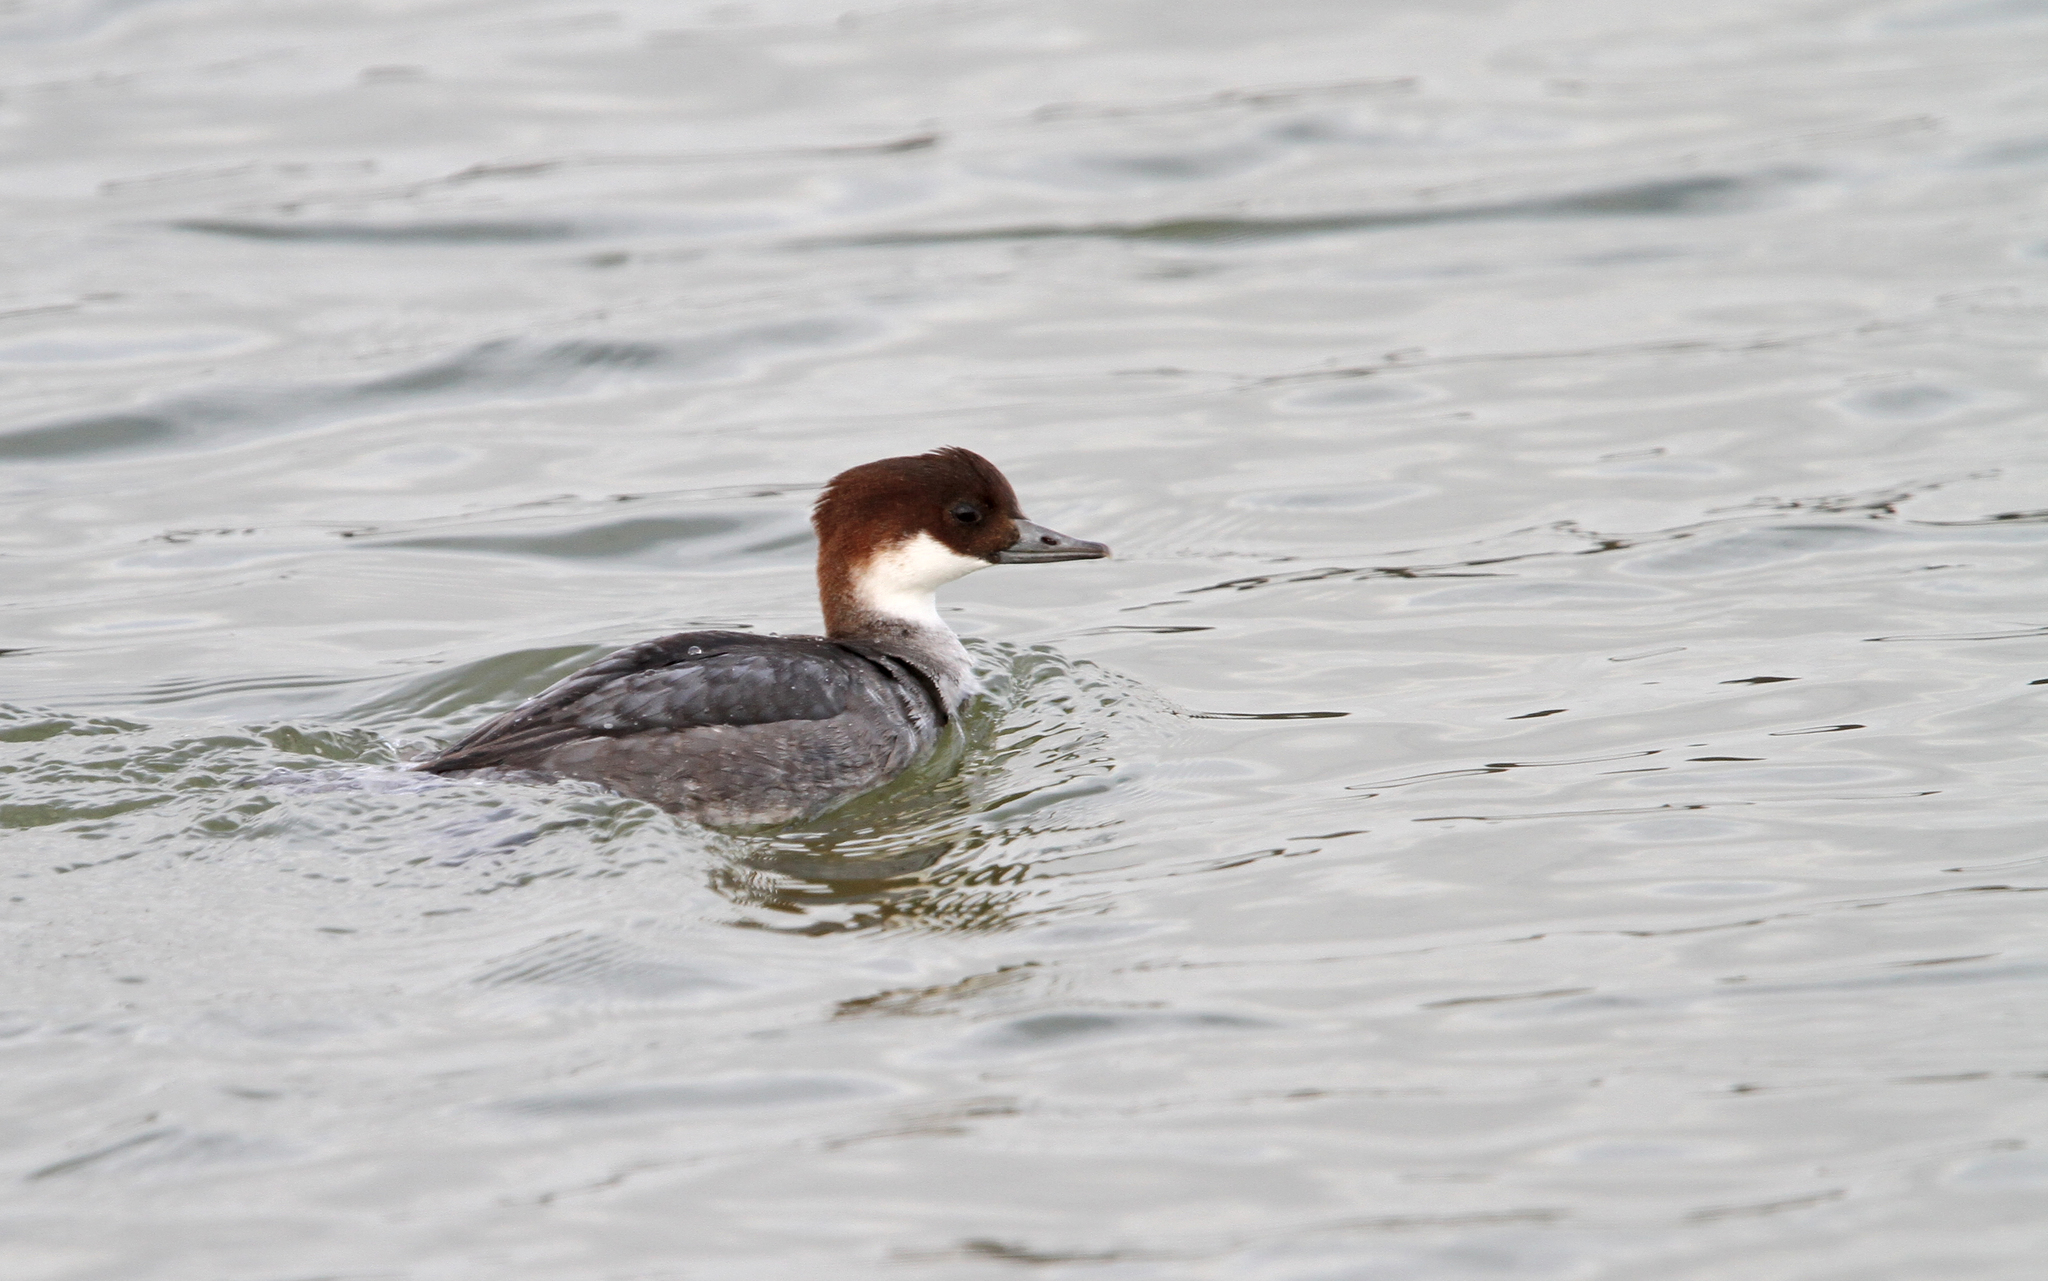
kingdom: Animalia
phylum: Chordata
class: Aves
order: Anseriformes
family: Anatidae
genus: Mergellus
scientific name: Mergellus albellus
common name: Smew
